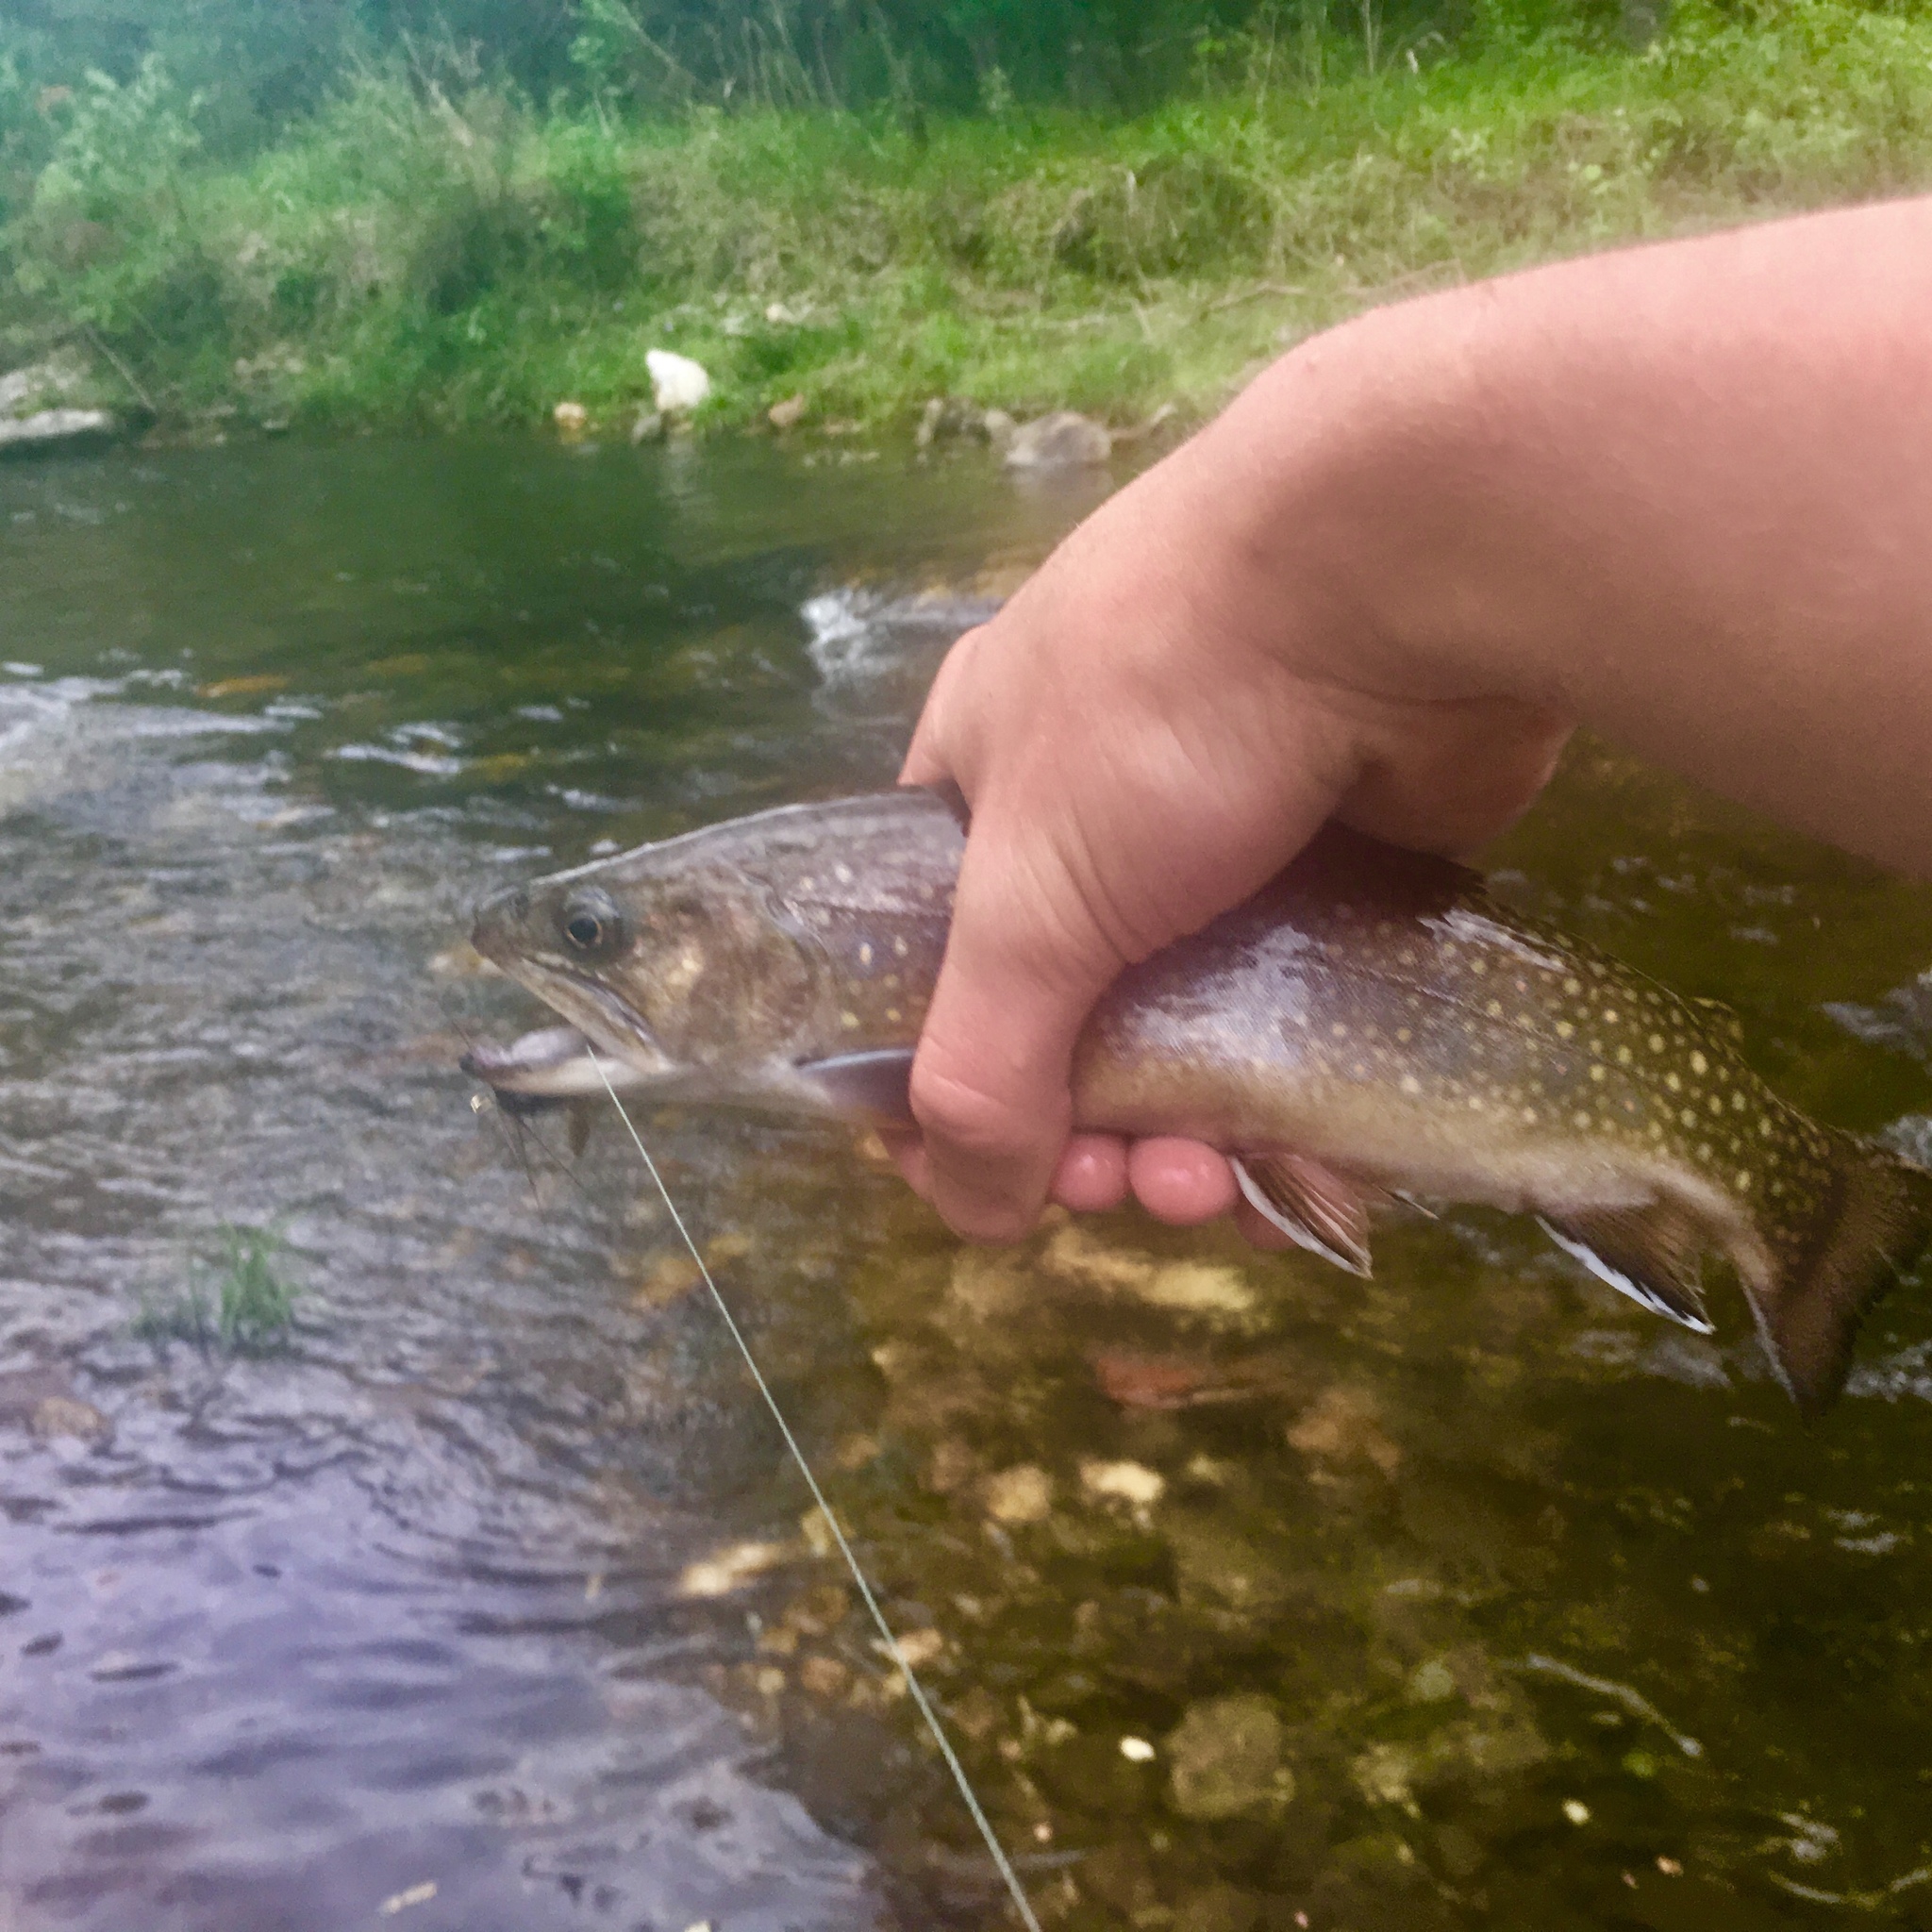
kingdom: Animalia
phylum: Chordata
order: Salmoniformes
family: Salmonidae
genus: Salvelinus
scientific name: Salvelinus fontinalis
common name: Brook trout
